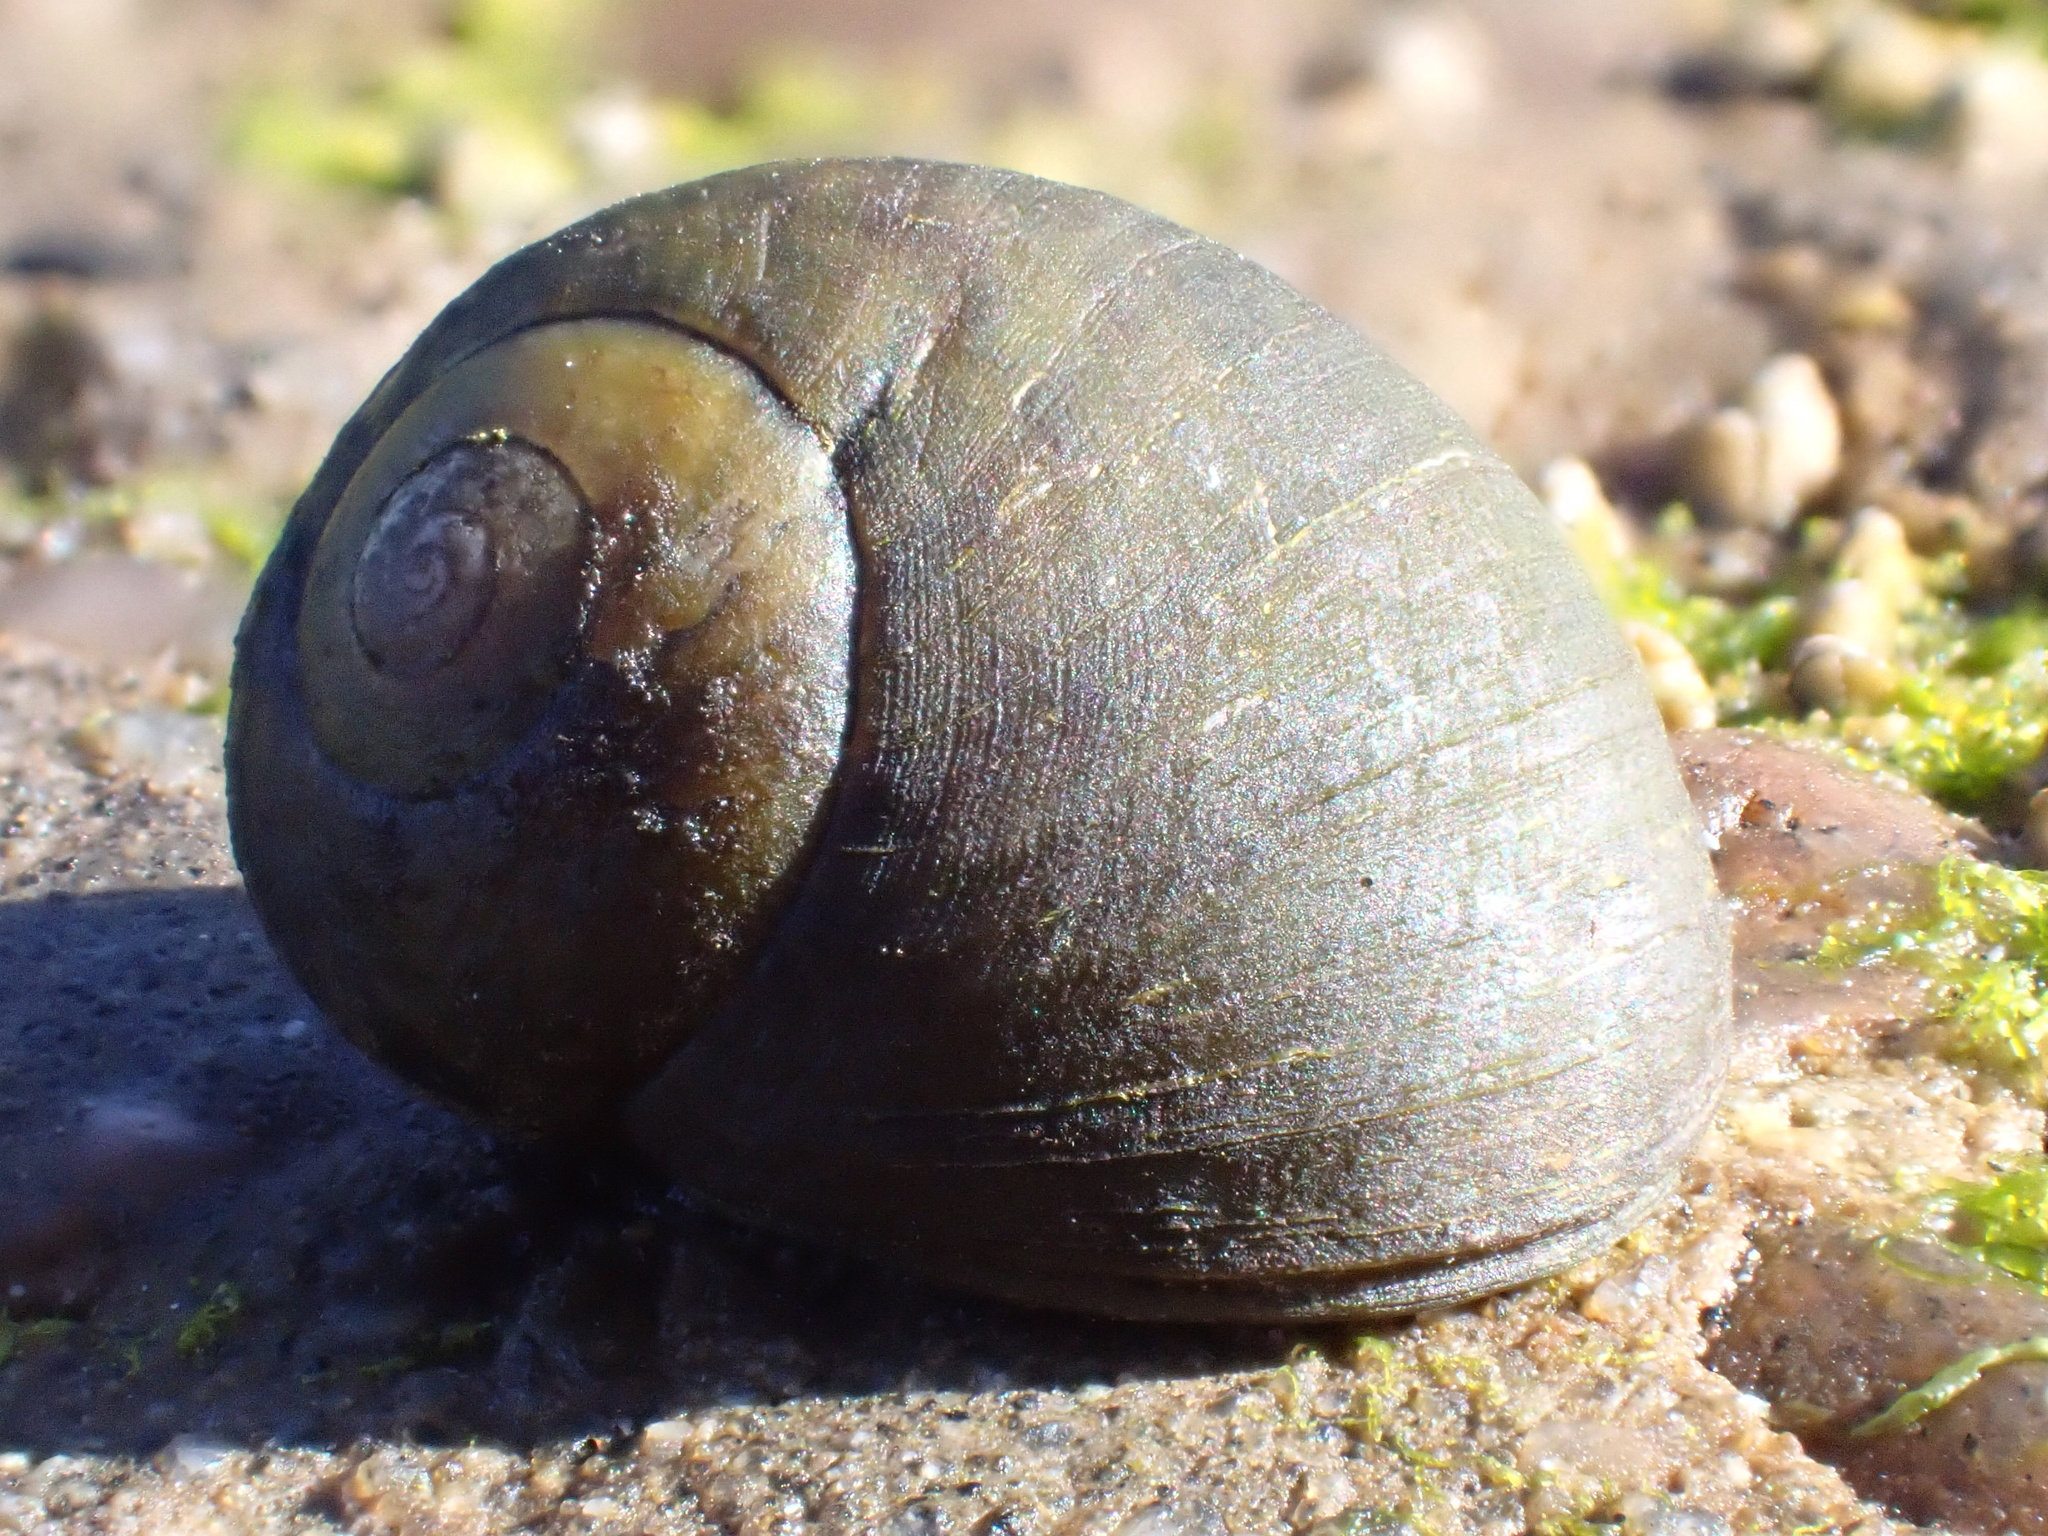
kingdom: Animalia
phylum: Mollusca
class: Gastropoda
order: Littorinimorpha
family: Littorinidae
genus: Littorina
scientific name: Littorina
